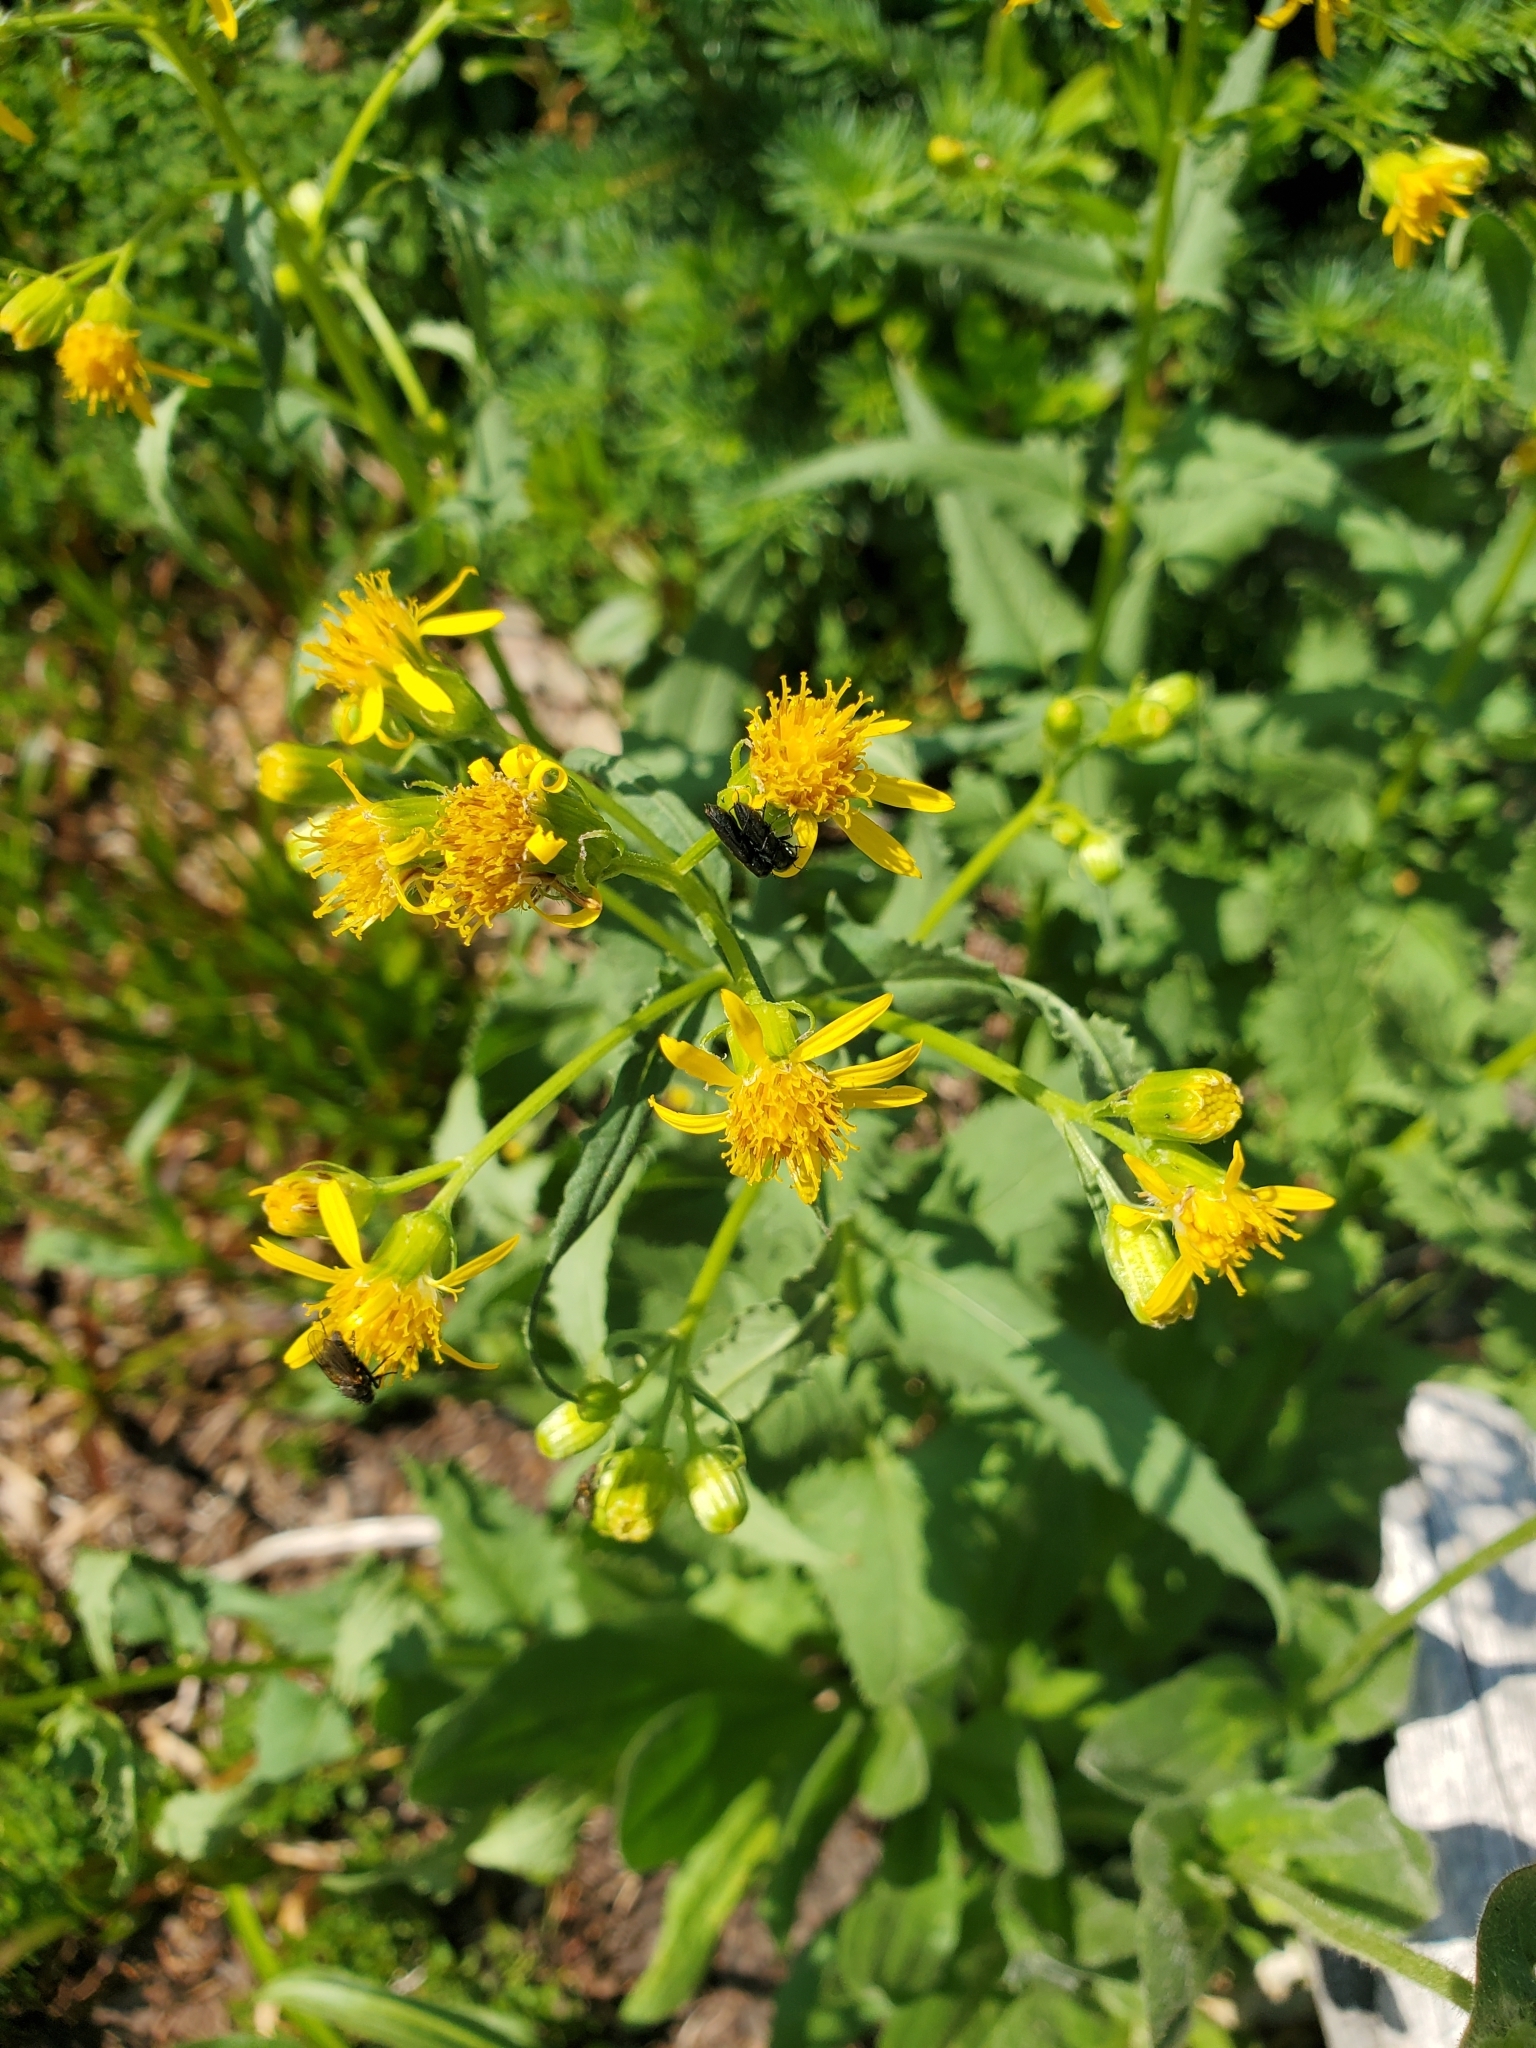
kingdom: Plantae
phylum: Tracheophyta
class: Magnoliopsida
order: Asterales
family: Asteraceae
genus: Senecio
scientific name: Senecio triangularis
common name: Arrowleaf butterweed
